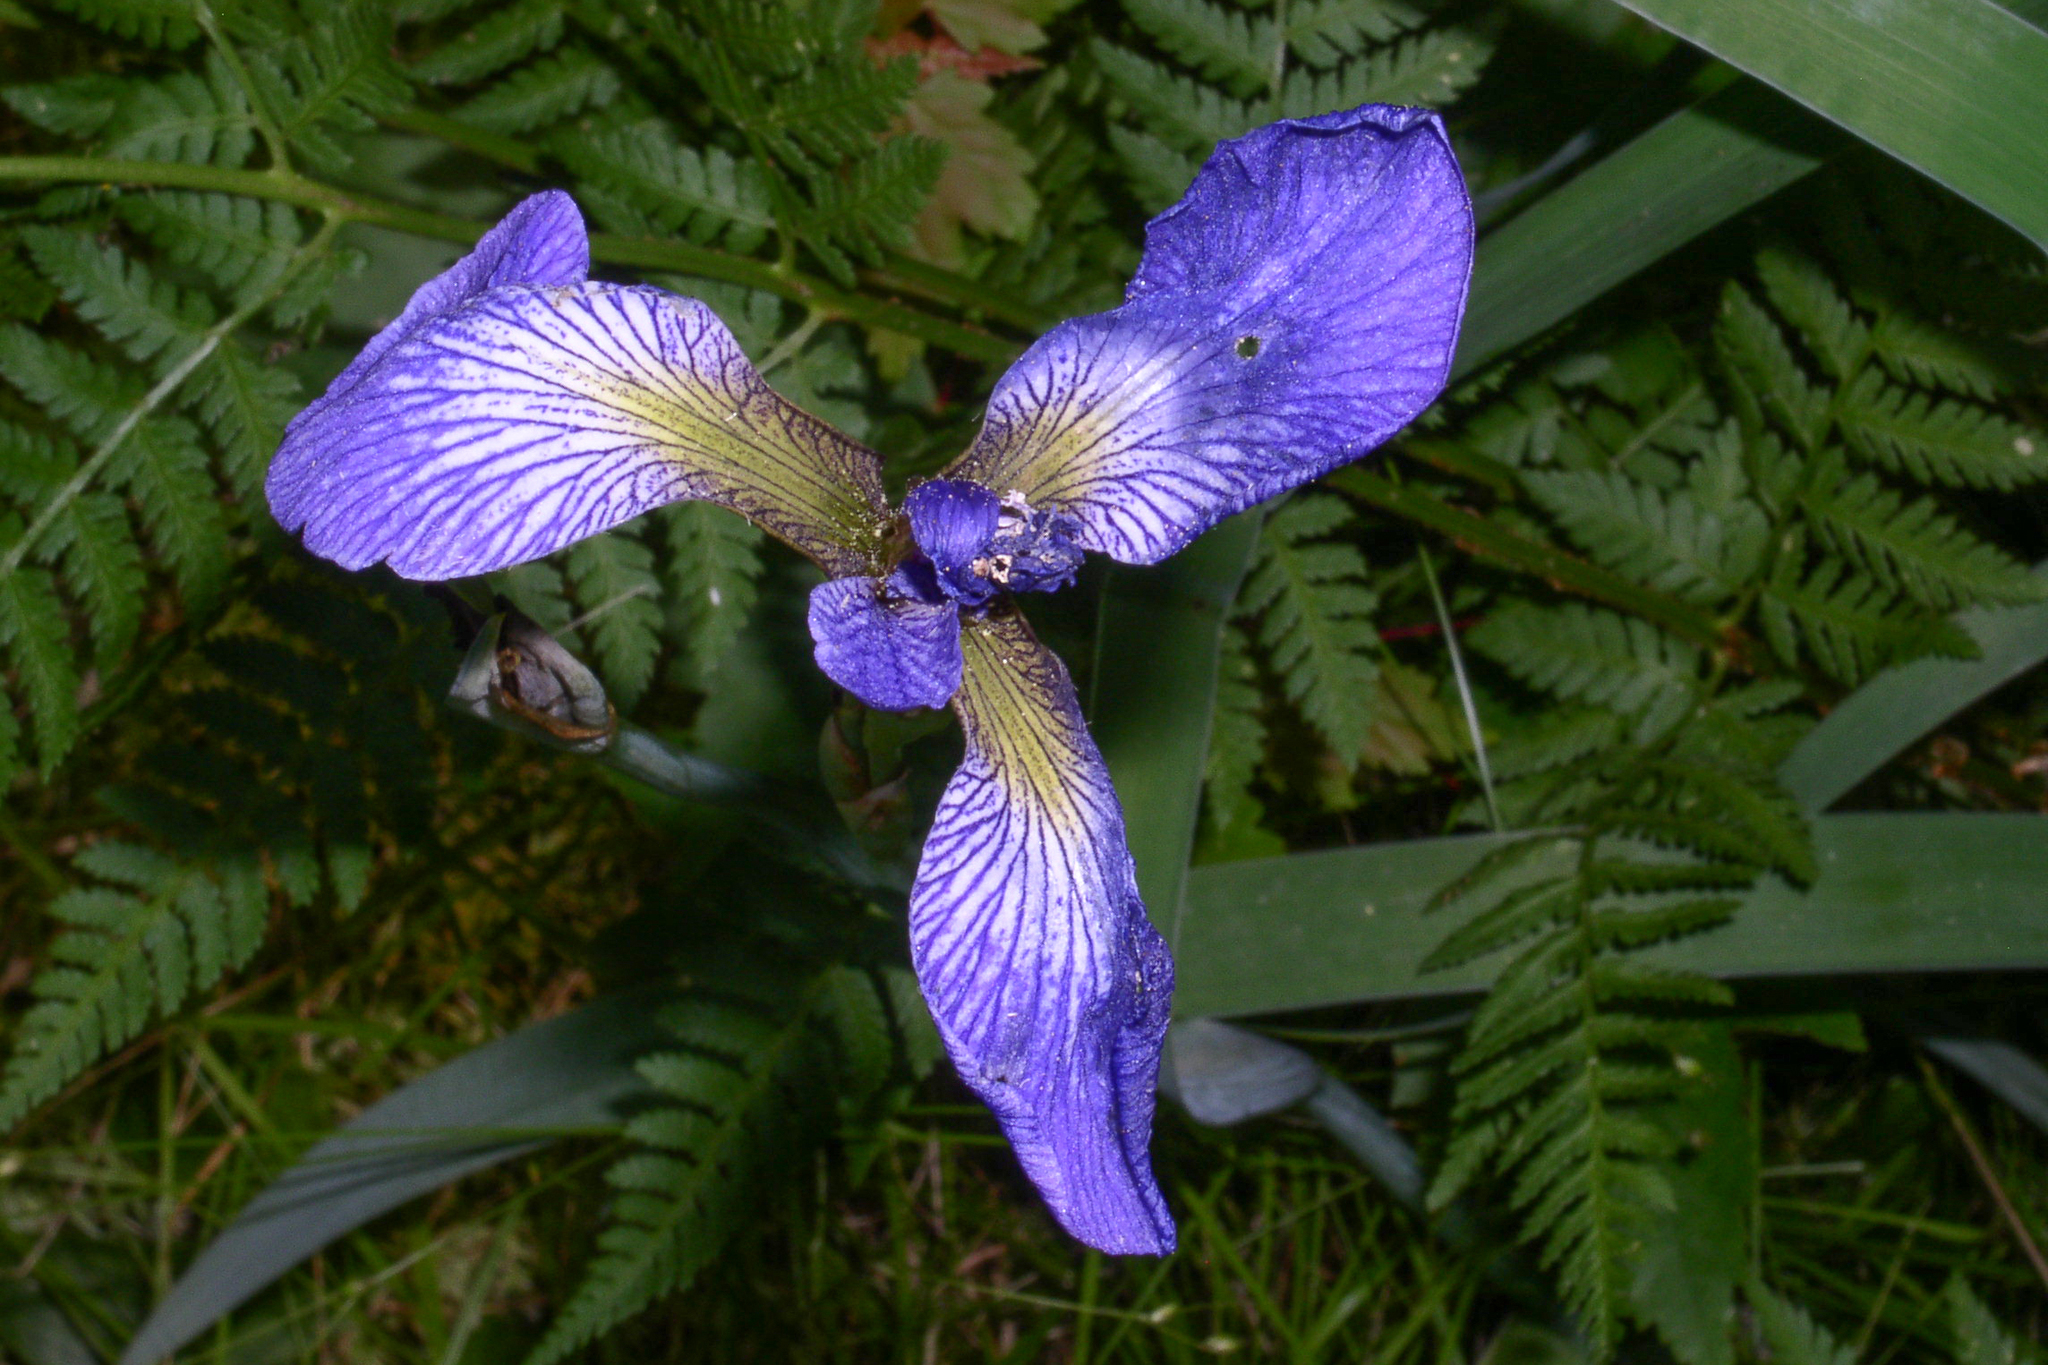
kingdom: Plantae
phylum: Tracheophyta
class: Liliopsida
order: Asparagales
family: Iridaceae
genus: Iris
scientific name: Iris versicolor
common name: Purple iris
